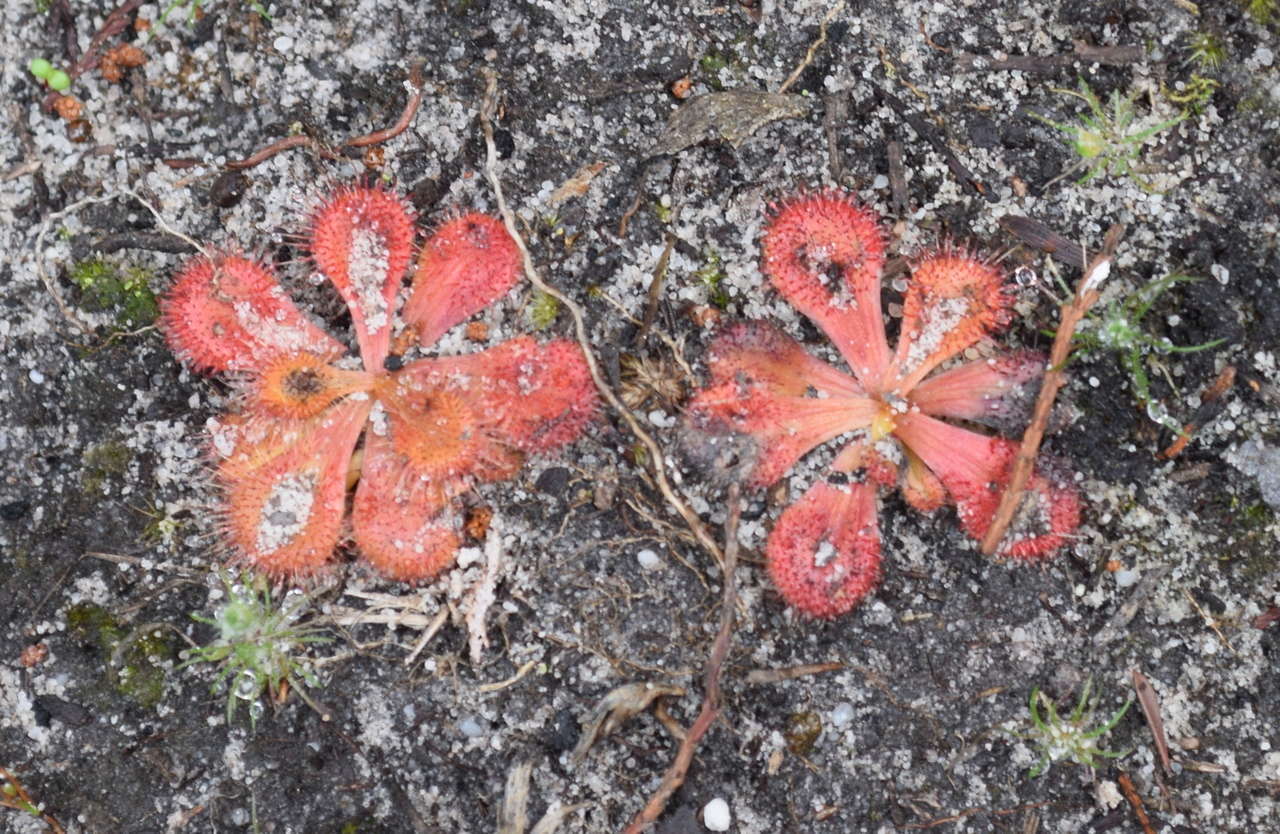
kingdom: Plantae
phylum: Tracheophyta
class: Magnoliopsida
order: Caryophyllales
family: Droseraceae
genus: Drosera
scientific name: Drosera aberrans
